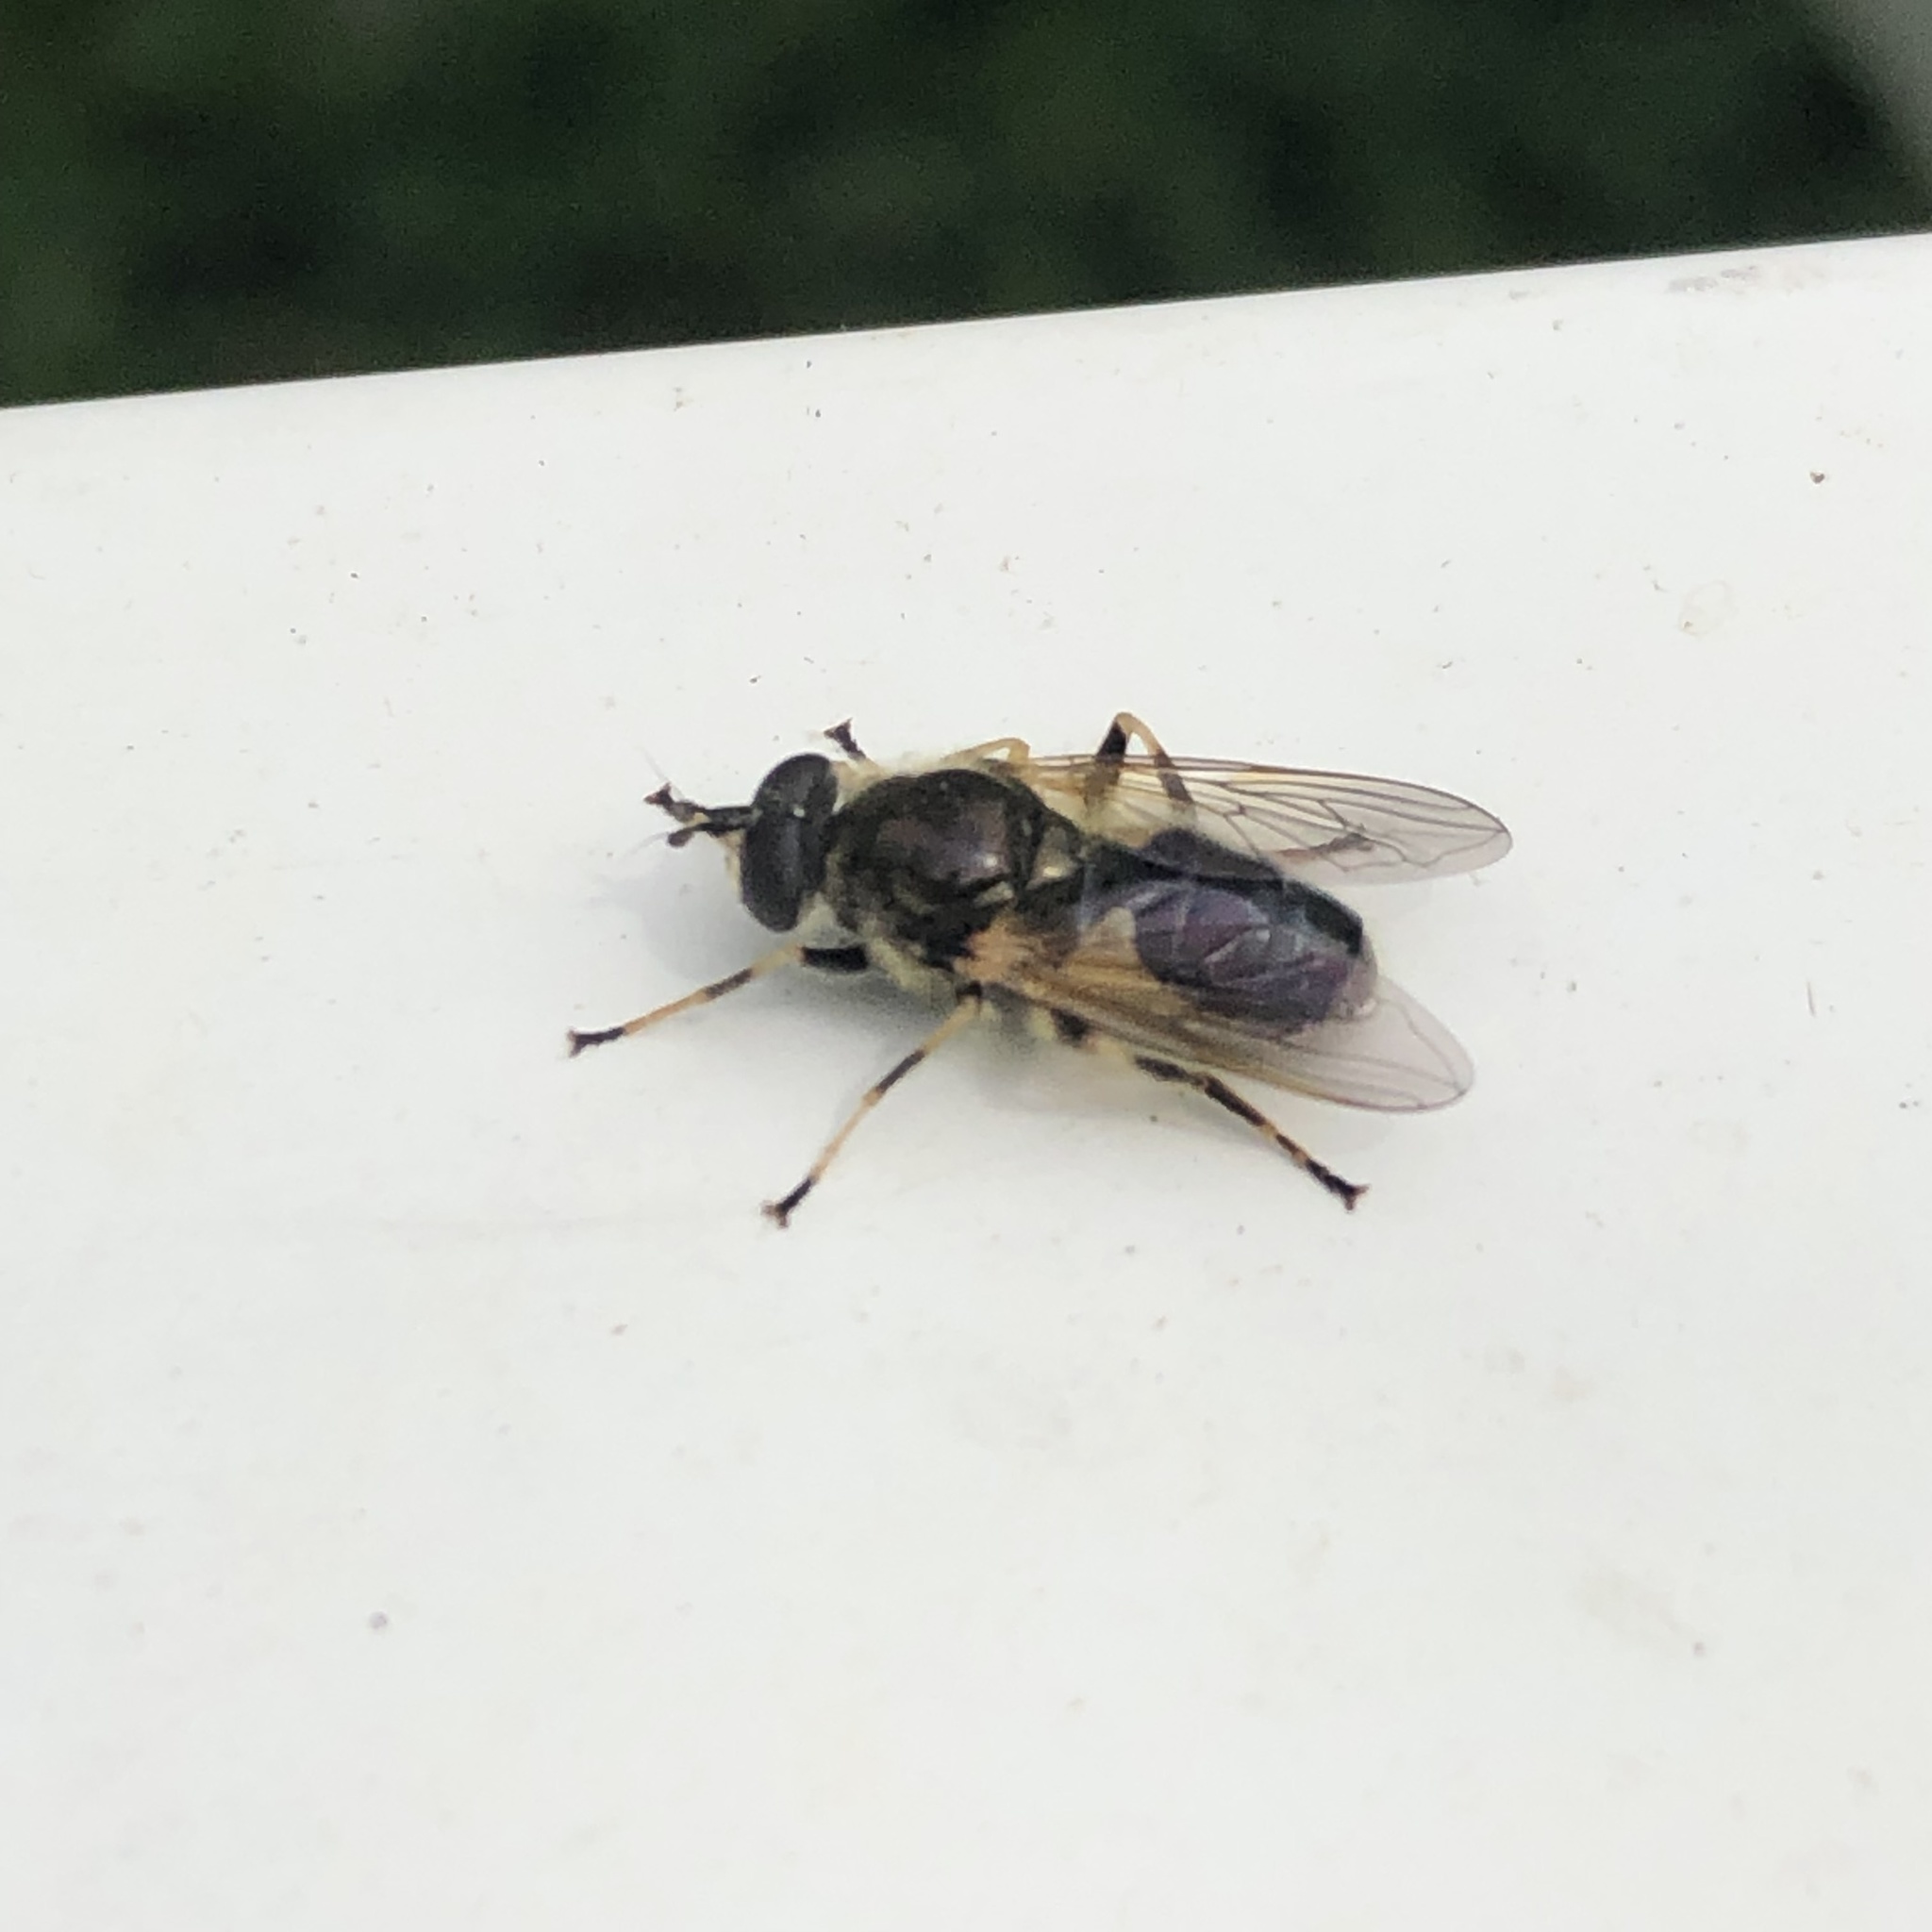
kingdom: Animalia
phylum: Arthropoda
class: Insecta
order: Diptera
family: Syrphidae
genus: Blera
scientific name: Blera badia
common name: Common wood fly
